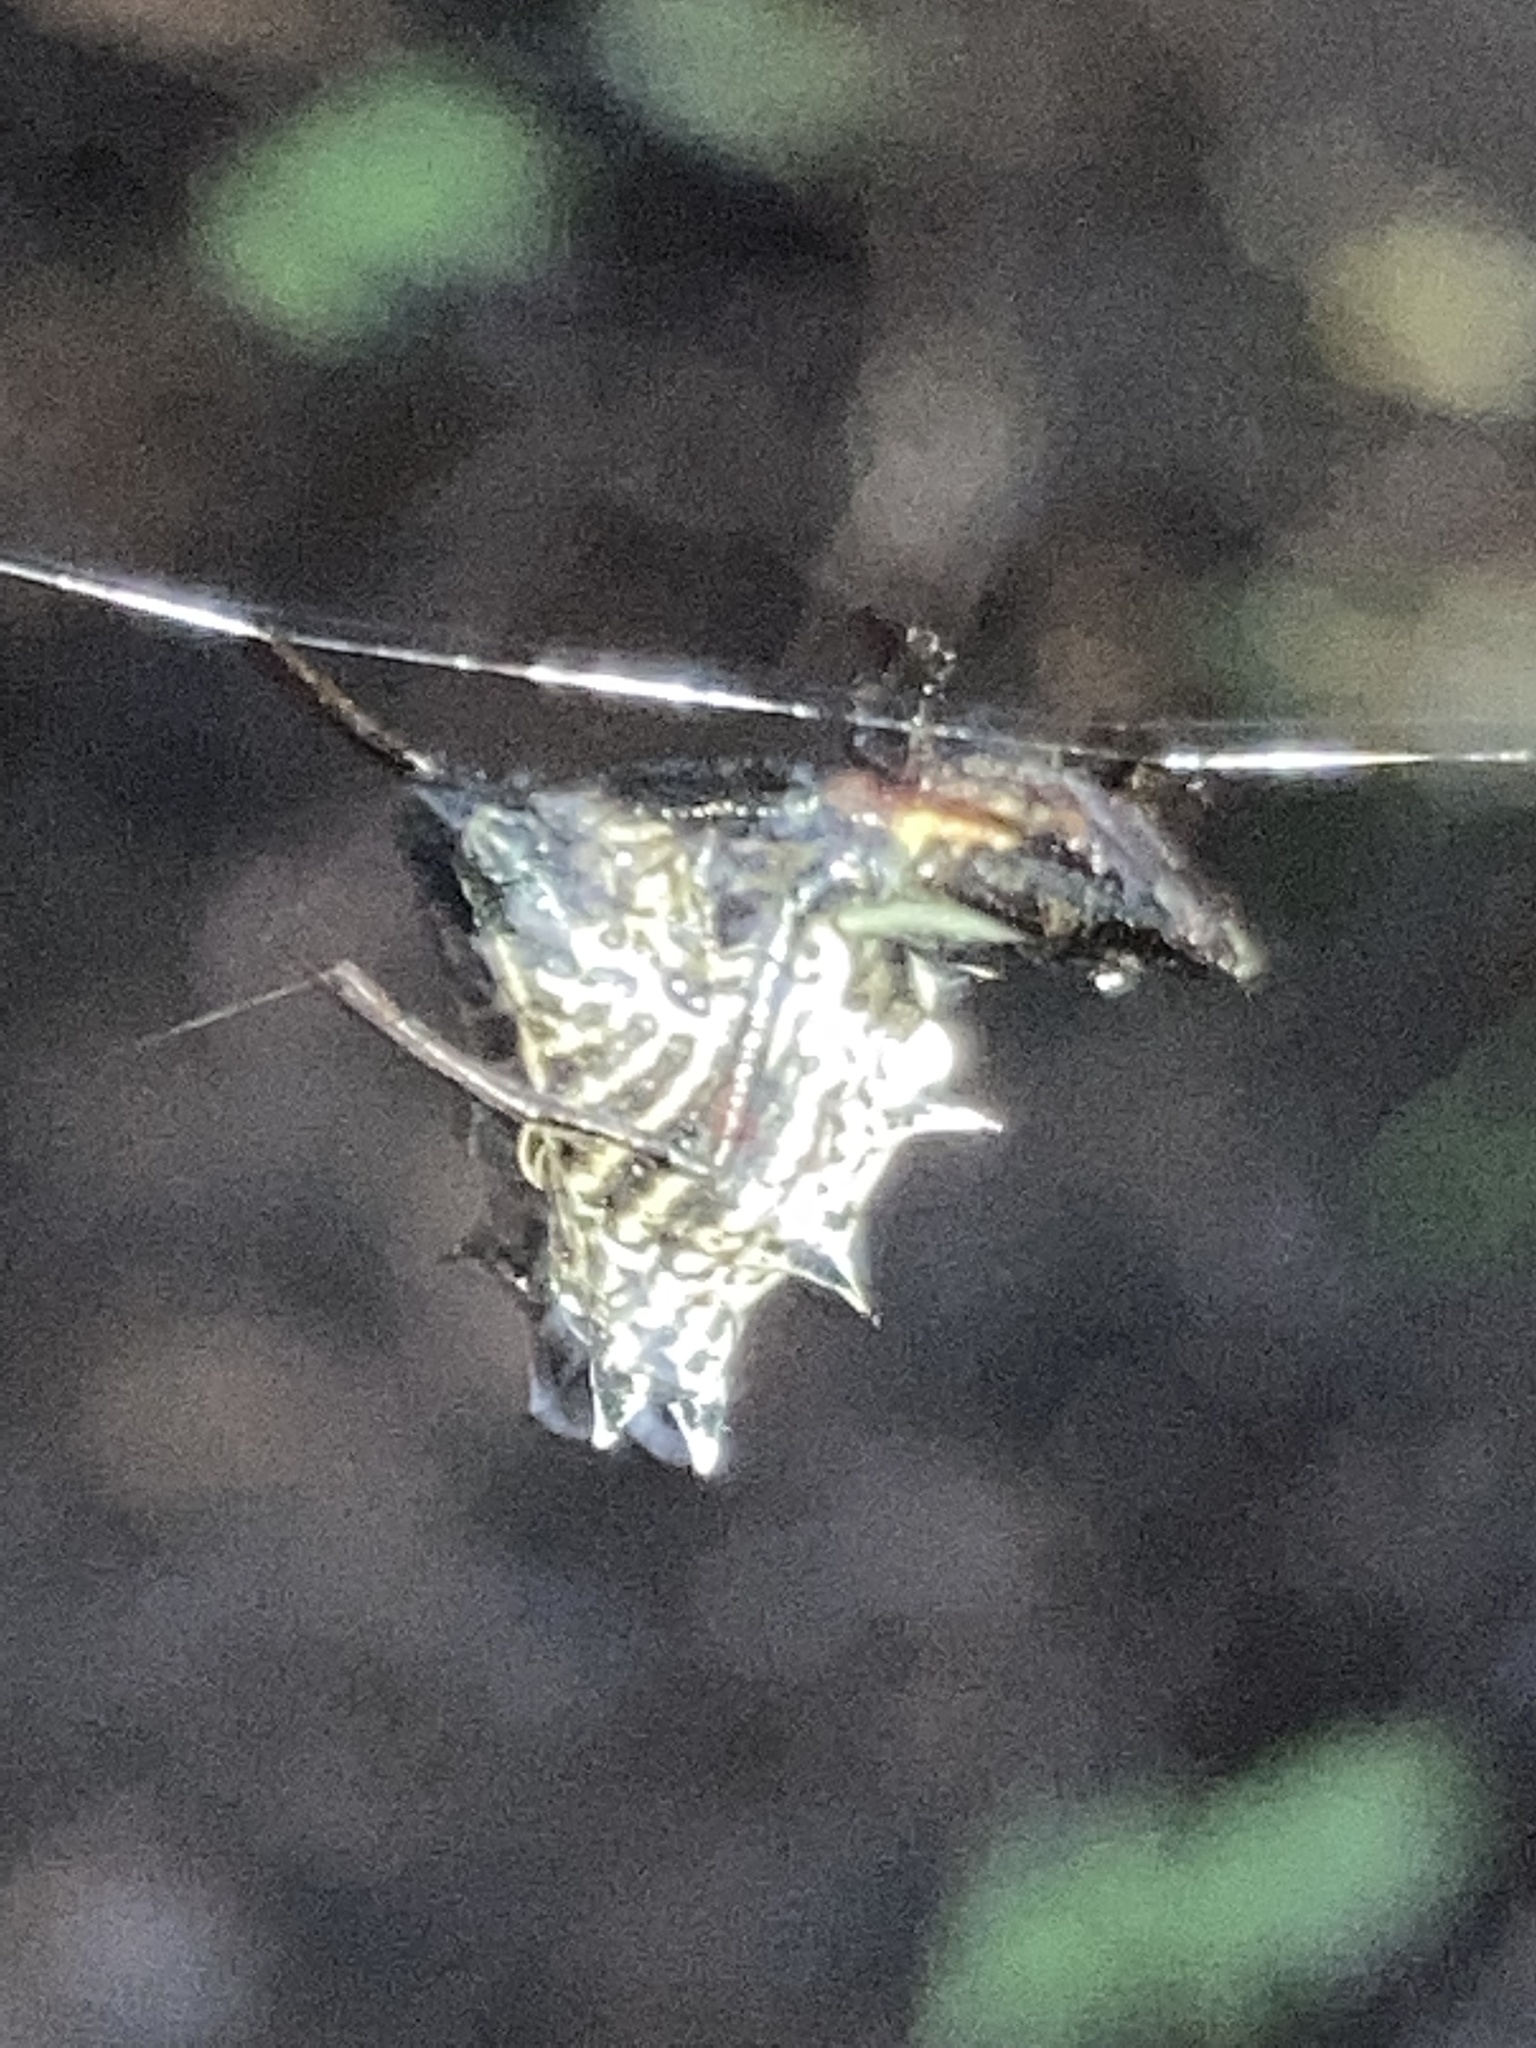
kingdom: Animalia
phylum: Arthropoda
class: Arachnida
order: Araneae
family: Araneidae
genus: Micrathena
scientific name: Micrathena gracilis
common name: Orb weavers
